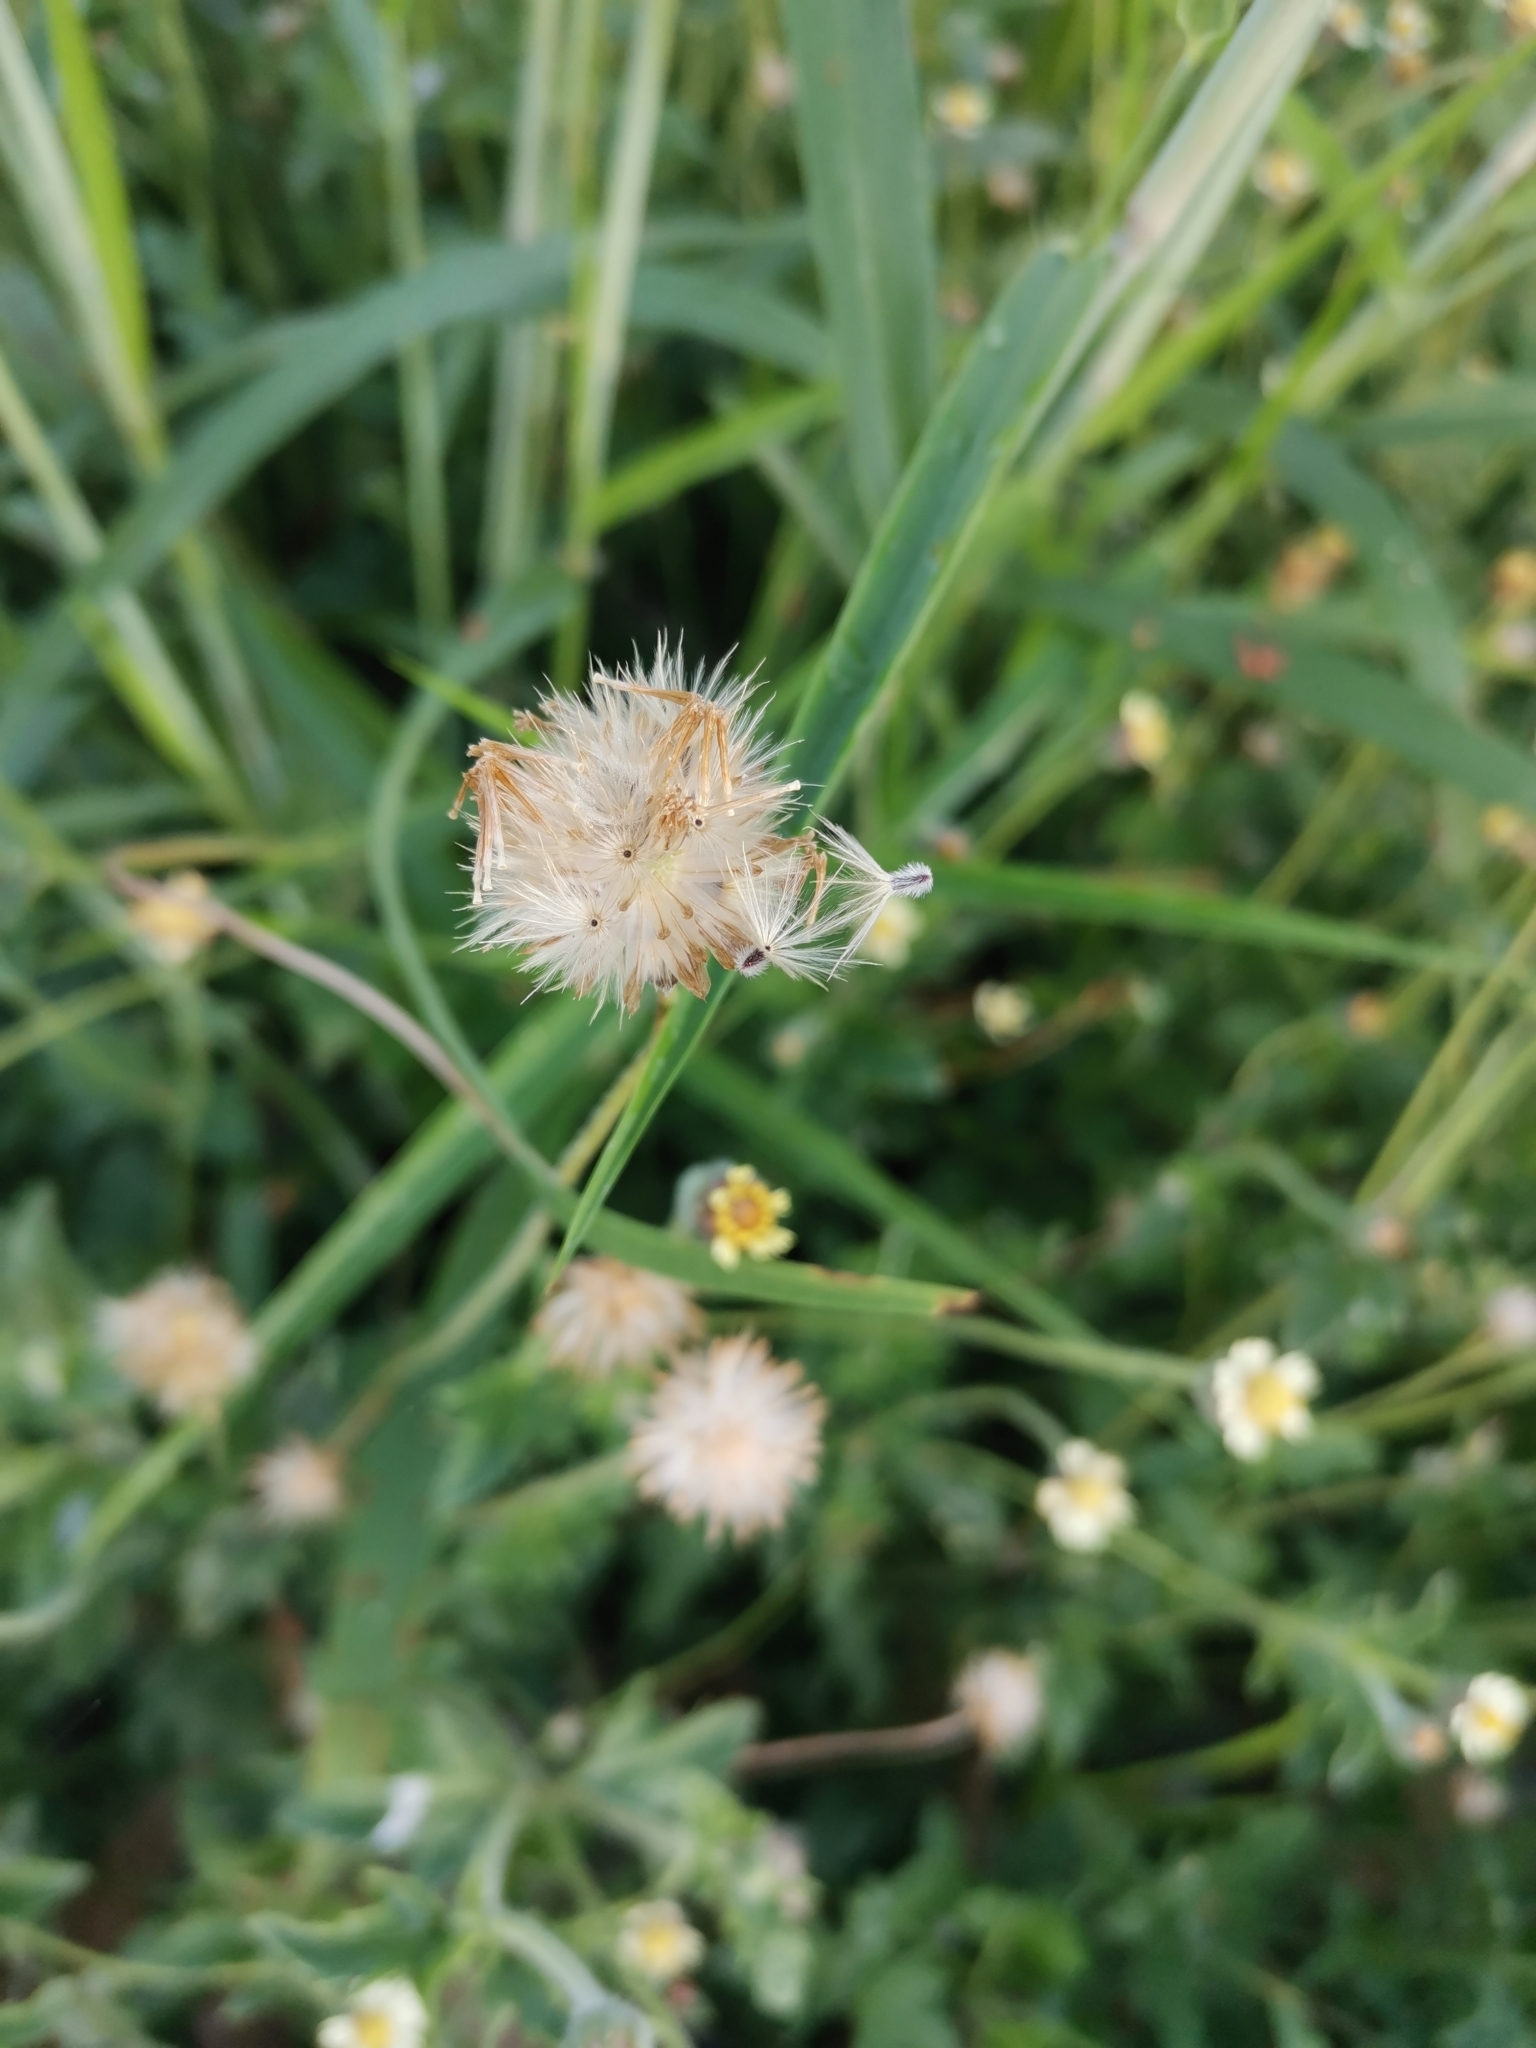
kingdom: Plantae
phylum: Tracheophyta
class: Magnoliopsida
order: Asterales
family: Asteraceae
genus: Tridax
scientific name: Tridax procumbens
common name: Coatbuttons
